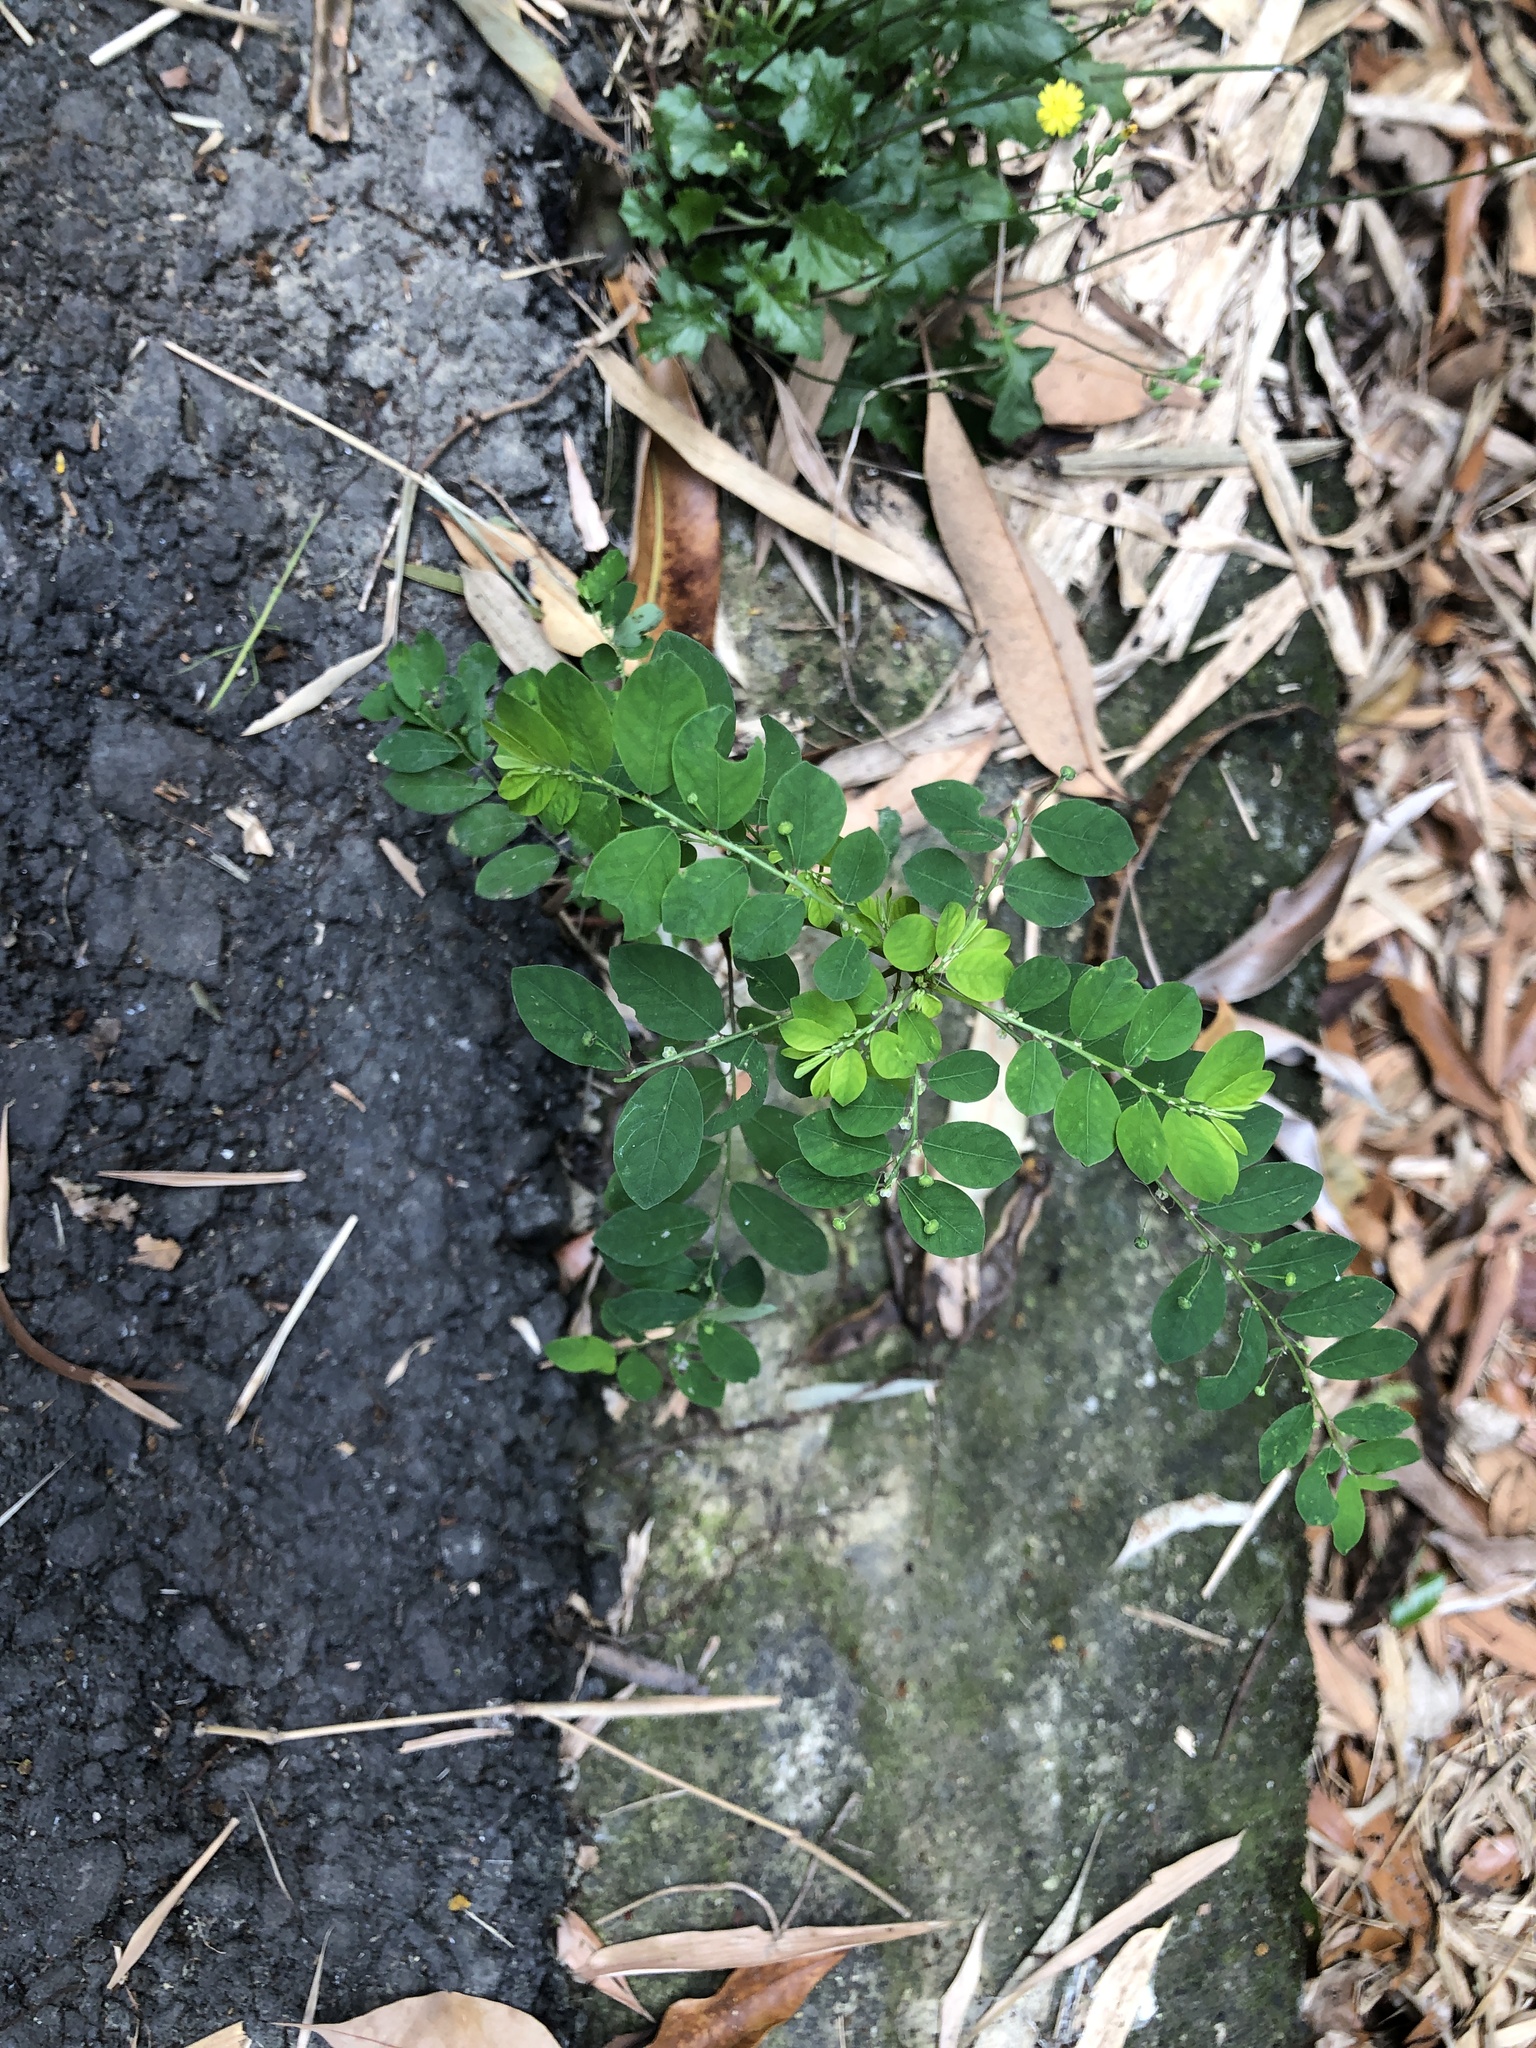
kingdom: Plantae
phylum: Tracheophyta
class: Magnoliopsida
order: Malpighiales
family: Phyllanthaceae
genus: Phyllanthus
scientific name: Phyllanthus tenellus
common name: Mascarene island leaf-flower
